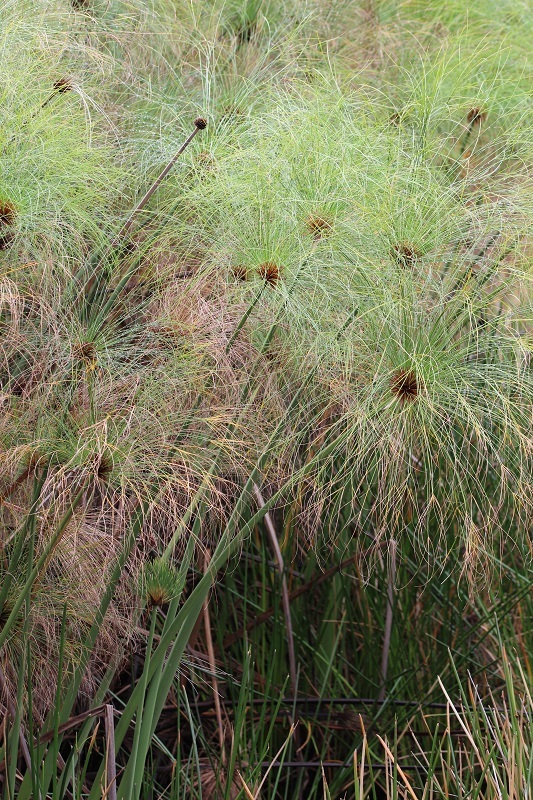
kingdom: Plantae
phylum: Tracheophyta
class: Liliopsida
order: Poales
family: Cyperaceae
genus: Cyperus
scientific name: Cyperus papyrus
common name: Papyrus
